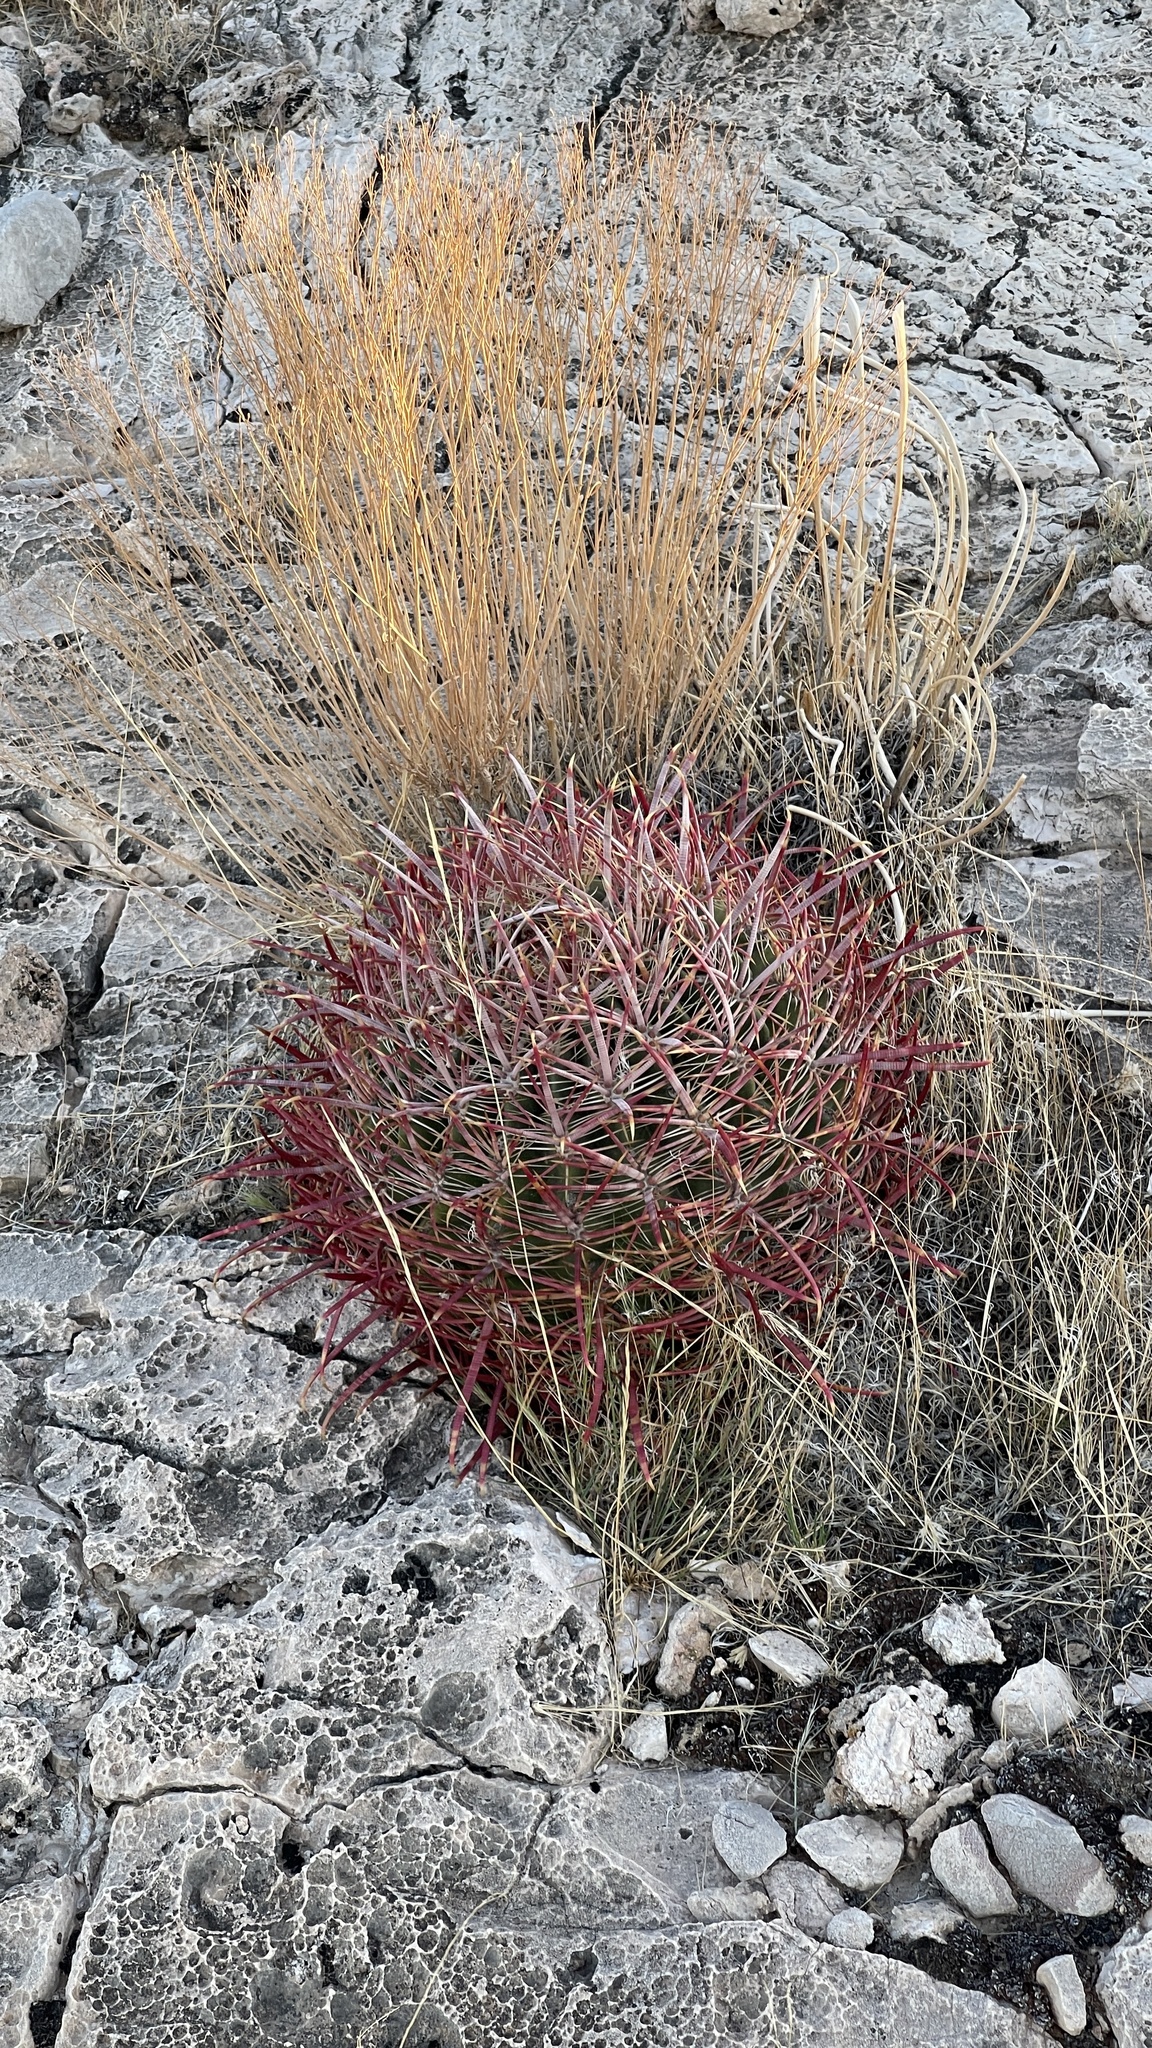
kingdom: Plantae
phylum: Tracheophyta
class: Magnoliopsida
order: Caryophyllales
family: Cactaceae
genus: Ferocactus
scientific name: Ferocactus cylindraceus
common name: California barrel cactus
